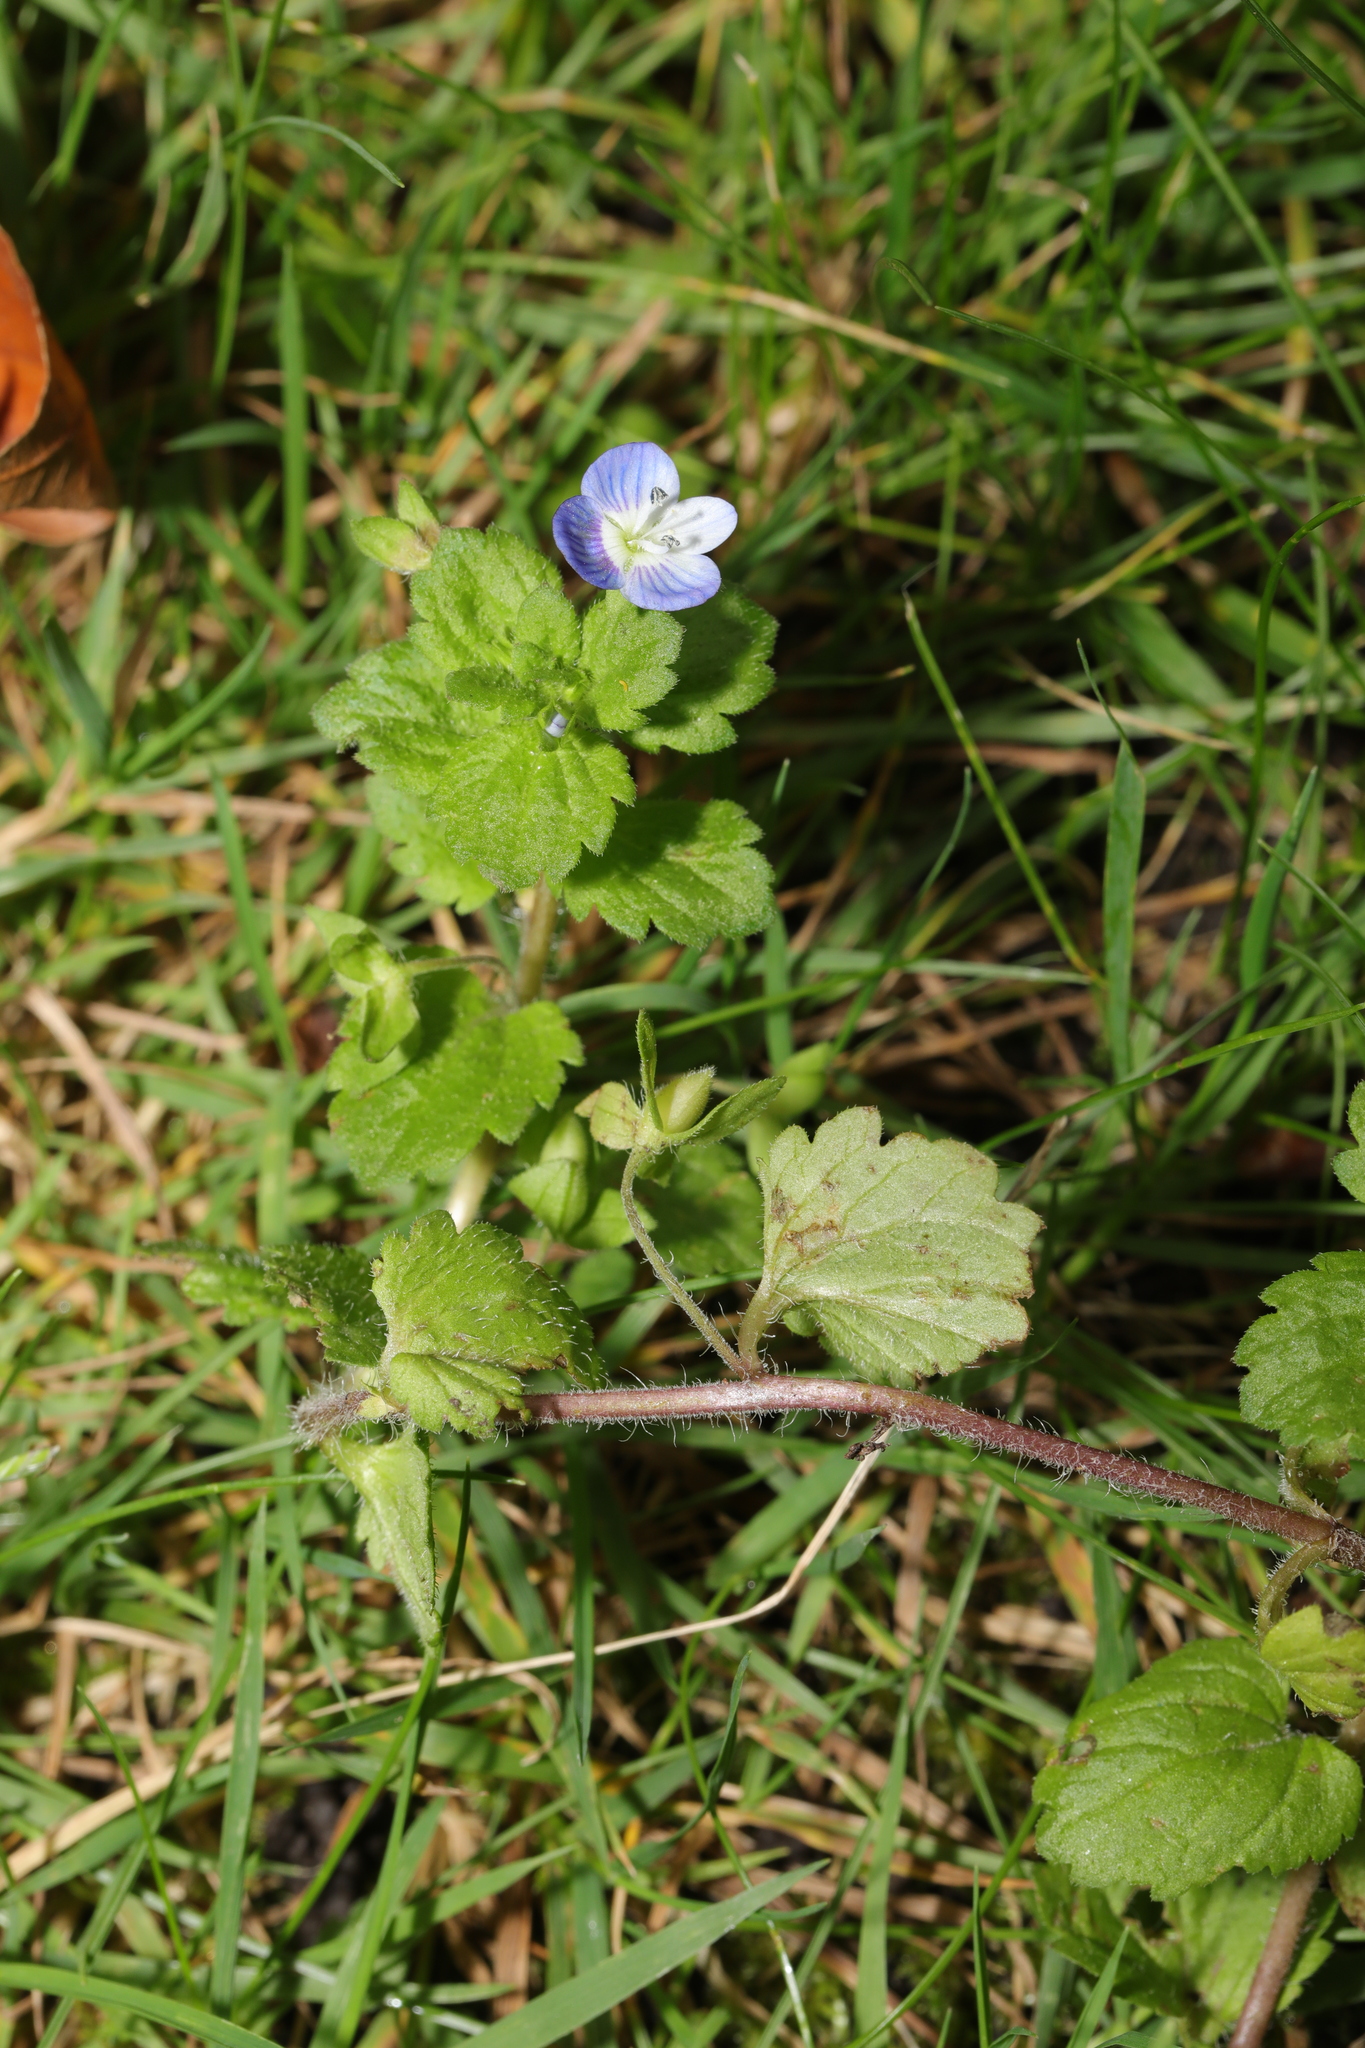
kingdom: Plantae
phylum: Tracheophyta
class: Magnoliopsida
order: Lamiales
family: Plantaginaceae
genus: Veronica
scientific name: Veronica persica
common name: Common field-speedwell
